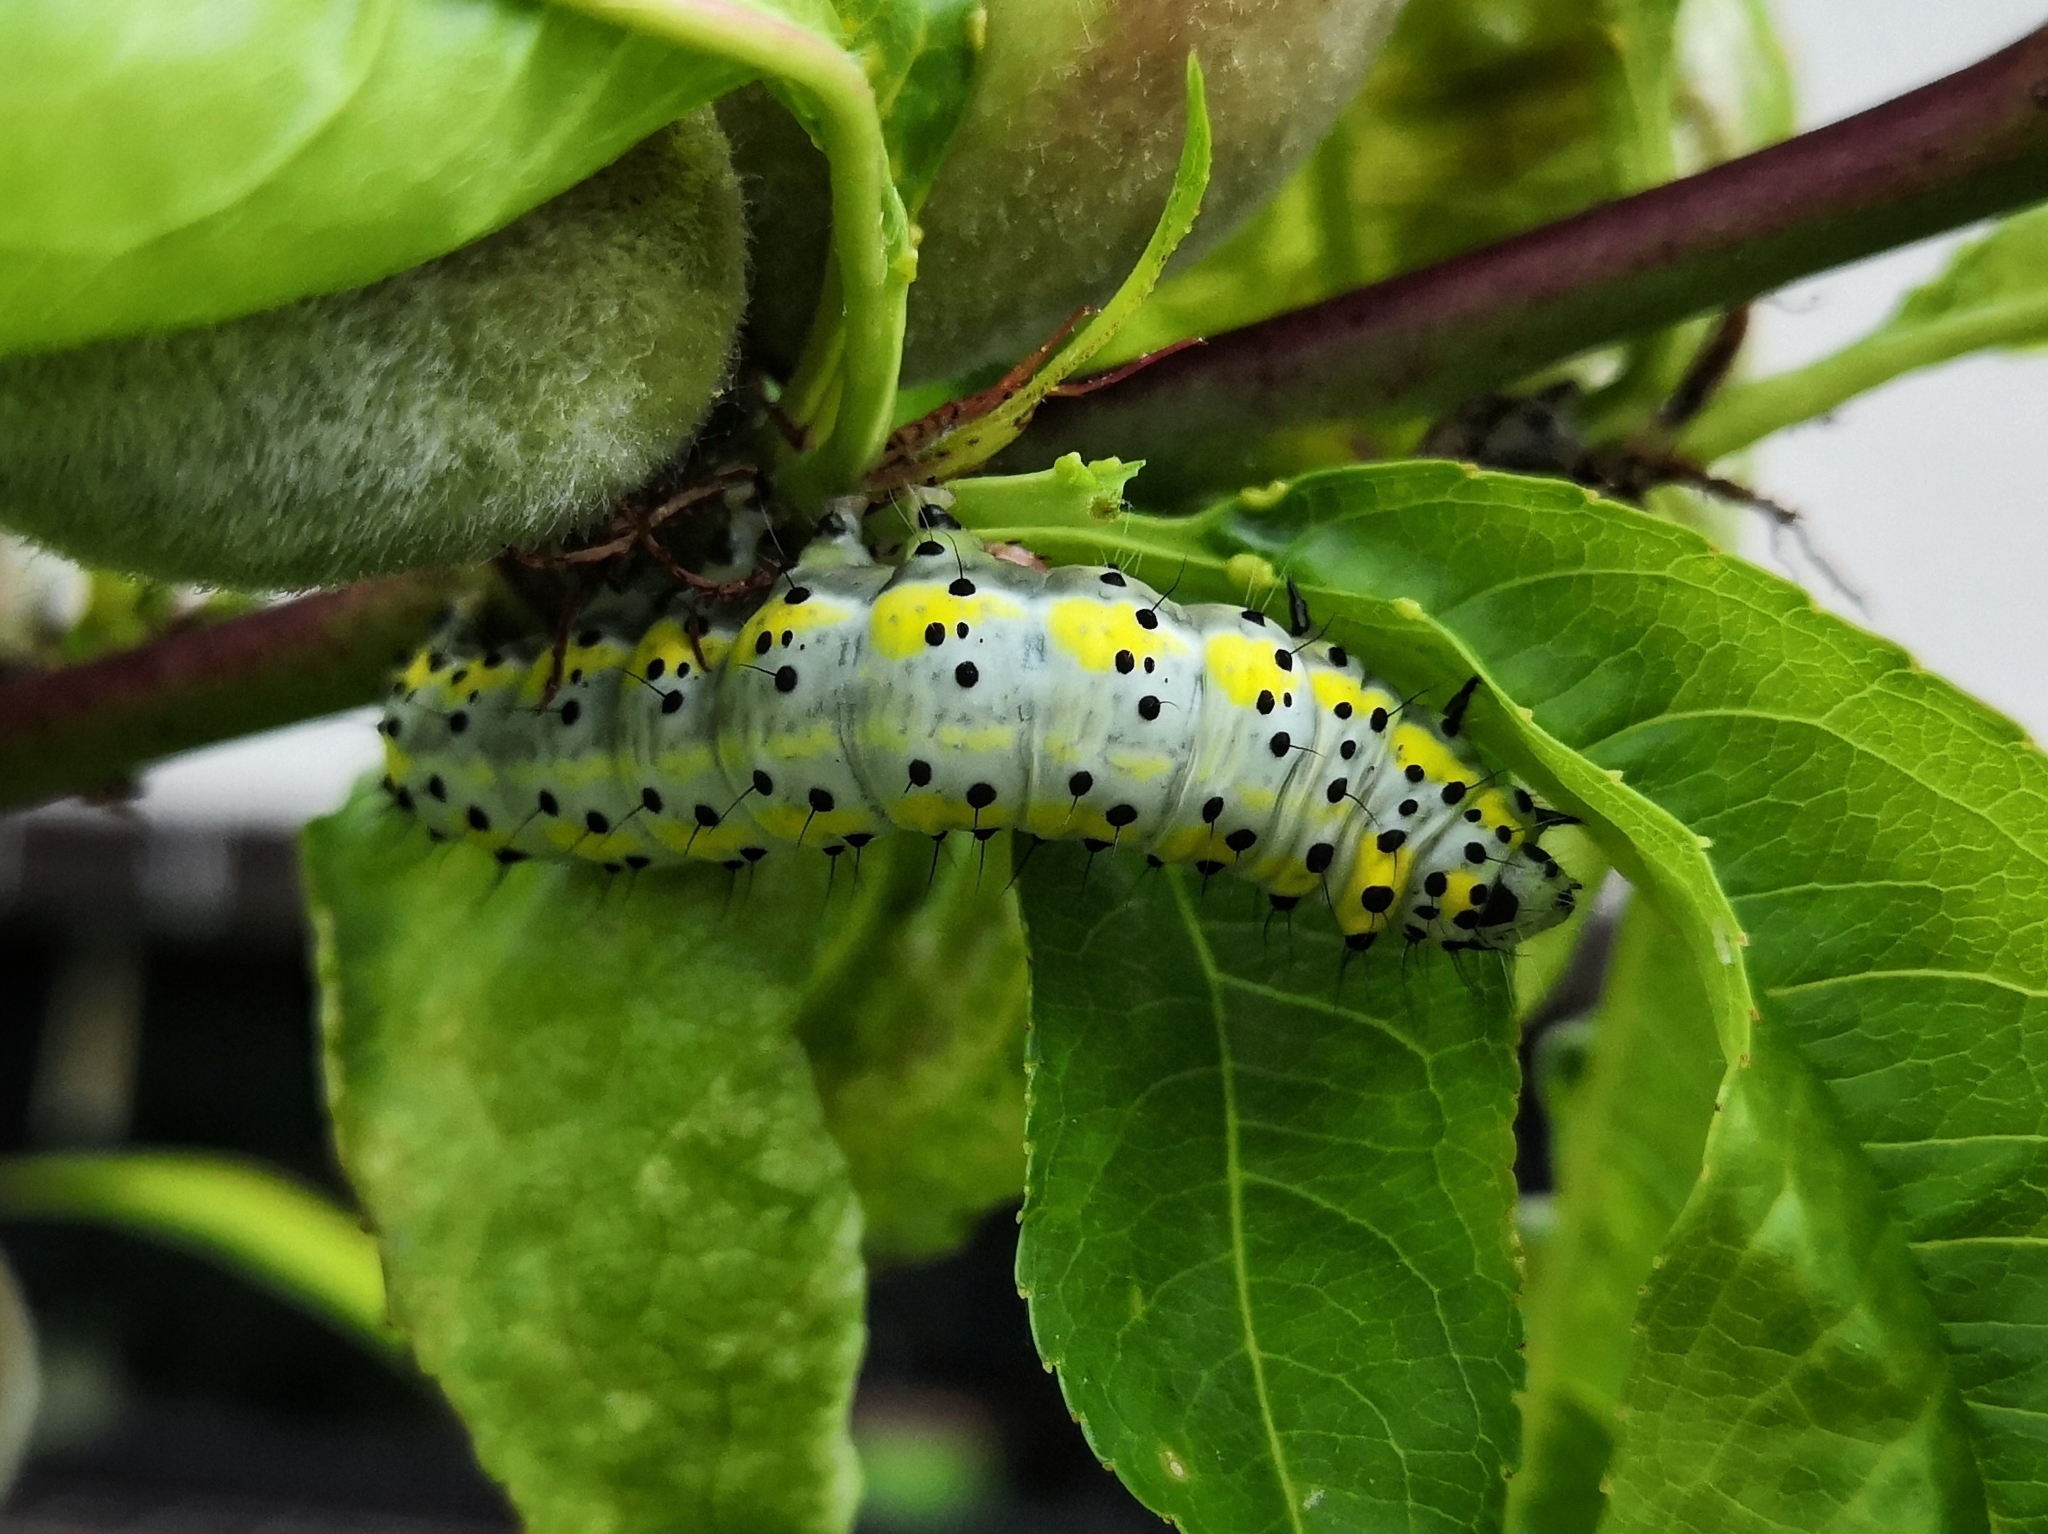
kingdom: Animalia
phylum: Arthropoda
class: Insecta
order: Lepidoptera
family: Noctuidae
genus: Diloba
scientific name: Diloba caeruleocephala
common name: Figure of eight
